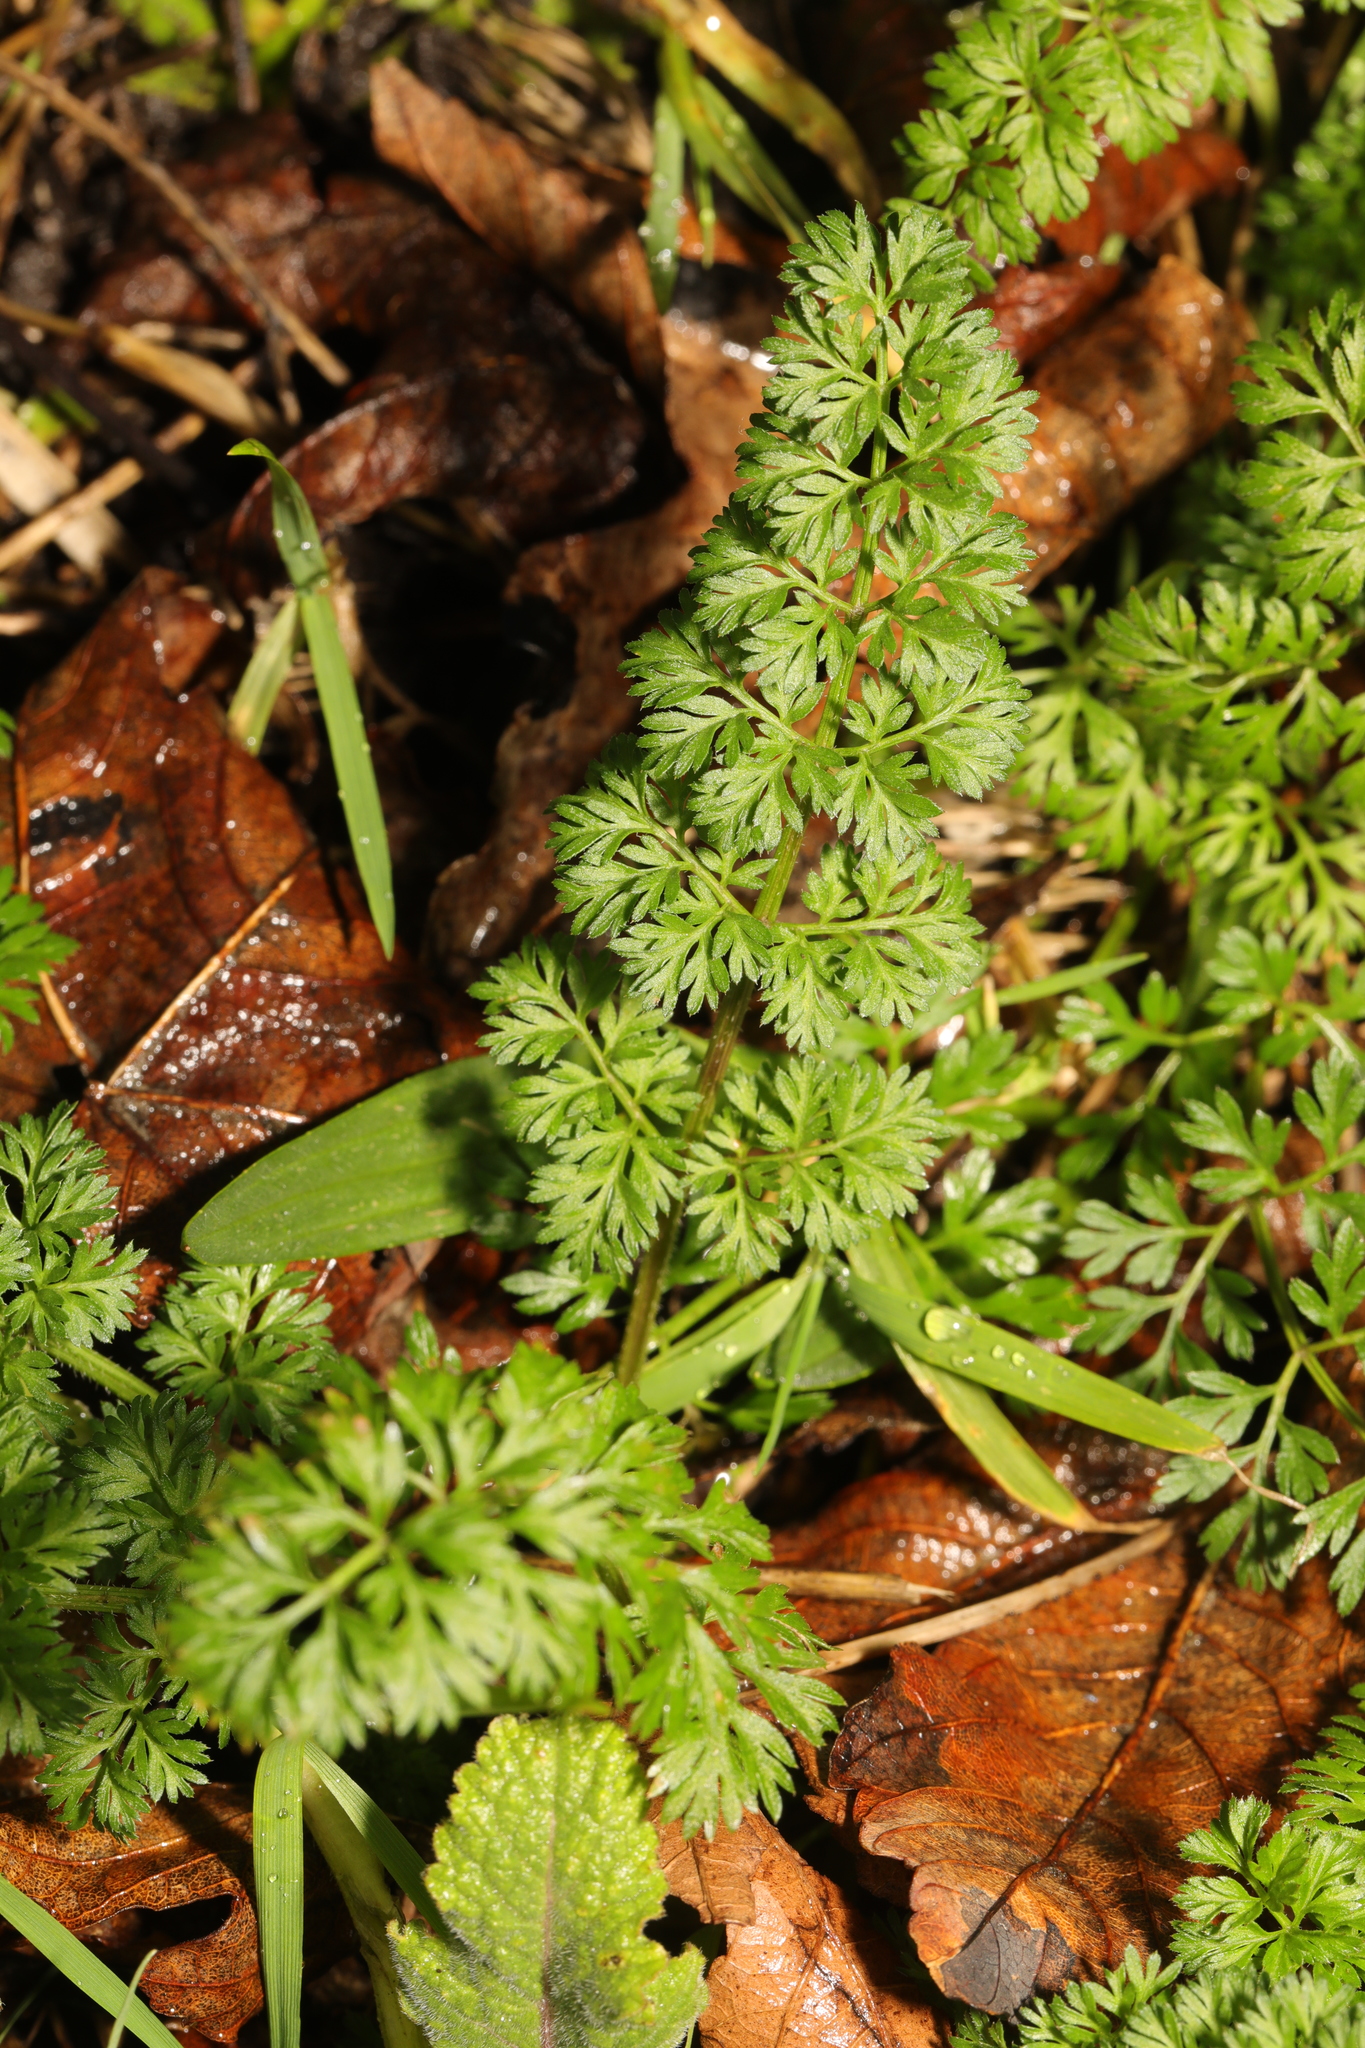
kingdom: Plantae
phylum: Tracheophyta
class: Magnoliopsida
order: Apiales
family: Apiaceae
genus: Daucus
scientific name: Daucus carota
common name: Wild carrot
